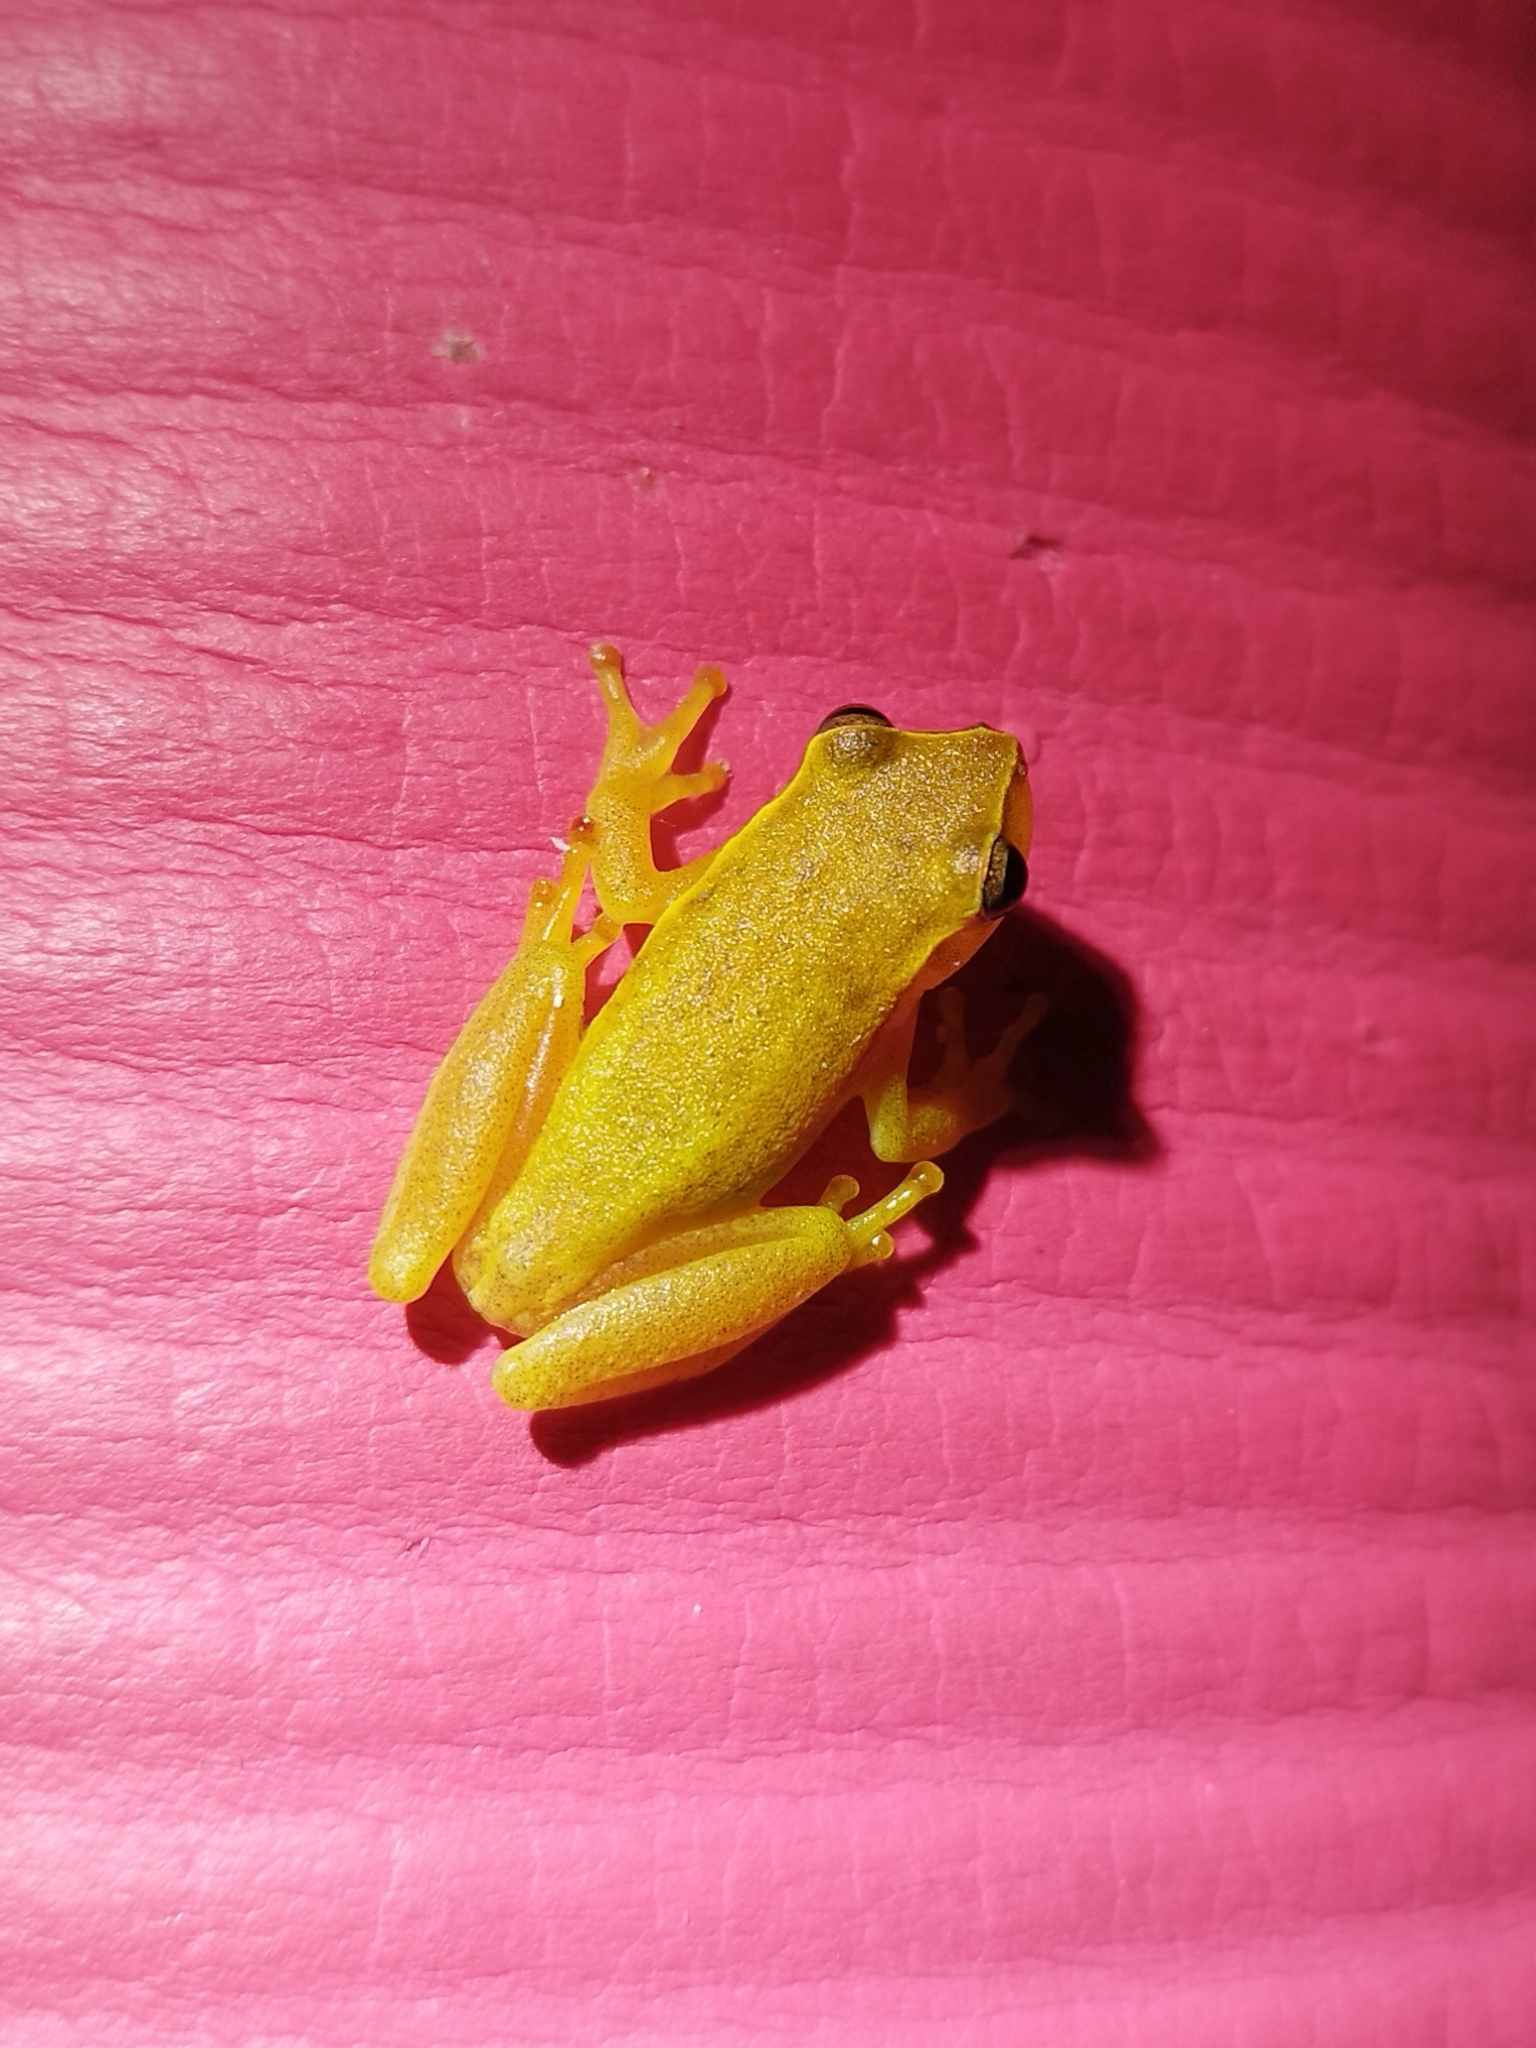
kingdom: Animalia
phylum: Chordata
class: Amphibia
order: Anura
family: Hylidae
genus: Tlalocohyla
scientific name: Tlalocohyla smithii
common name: Dwarf mexican treefrog
